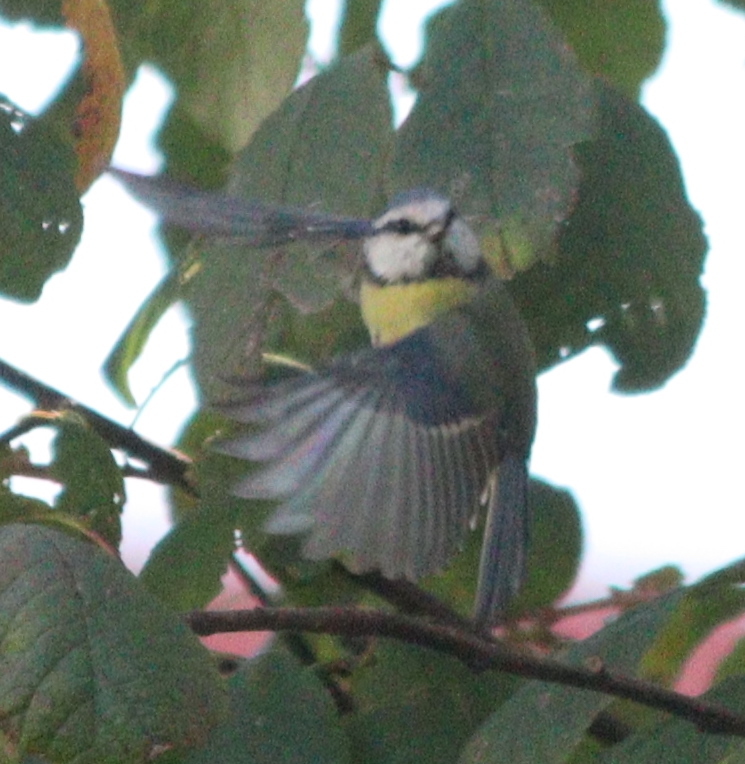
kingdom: Animalia
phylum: Chordata
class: Aves
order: Passeriformes
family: Paridae
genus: Cyanistes
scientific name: Cyanistes caeruleus
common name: Eurasian blue tit
